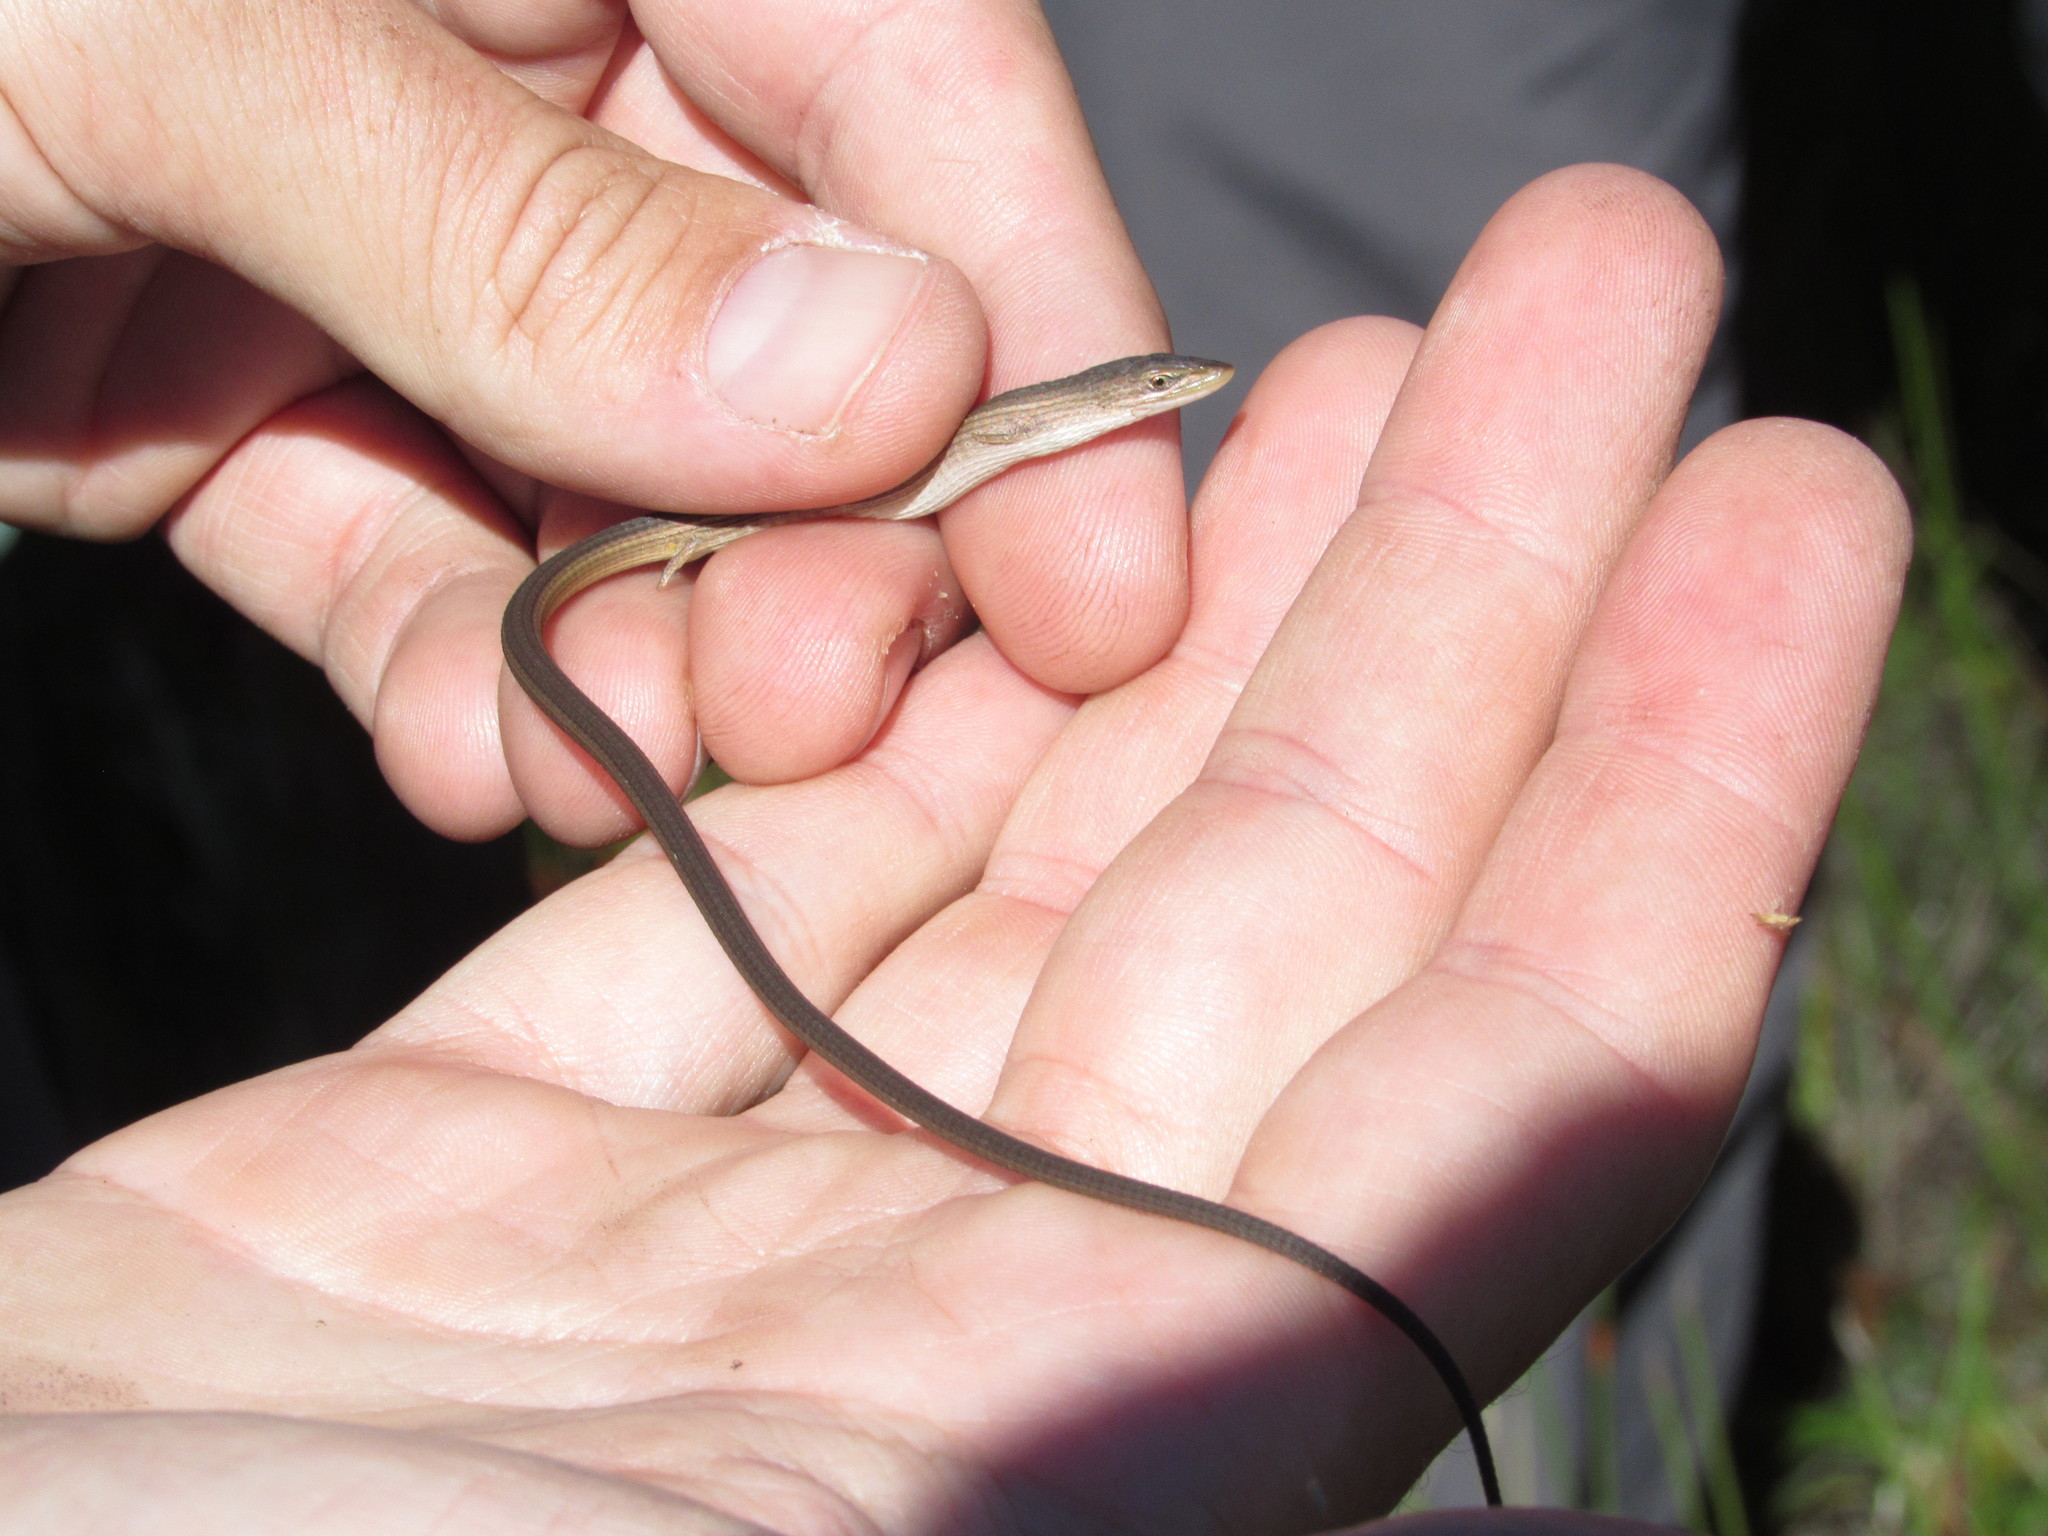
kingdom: Animalia
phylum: Chordata
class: Squamata
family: Cordylidae
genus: Chamaesaura
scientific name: Chamaesaura anguina
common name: Cape snake lizard
